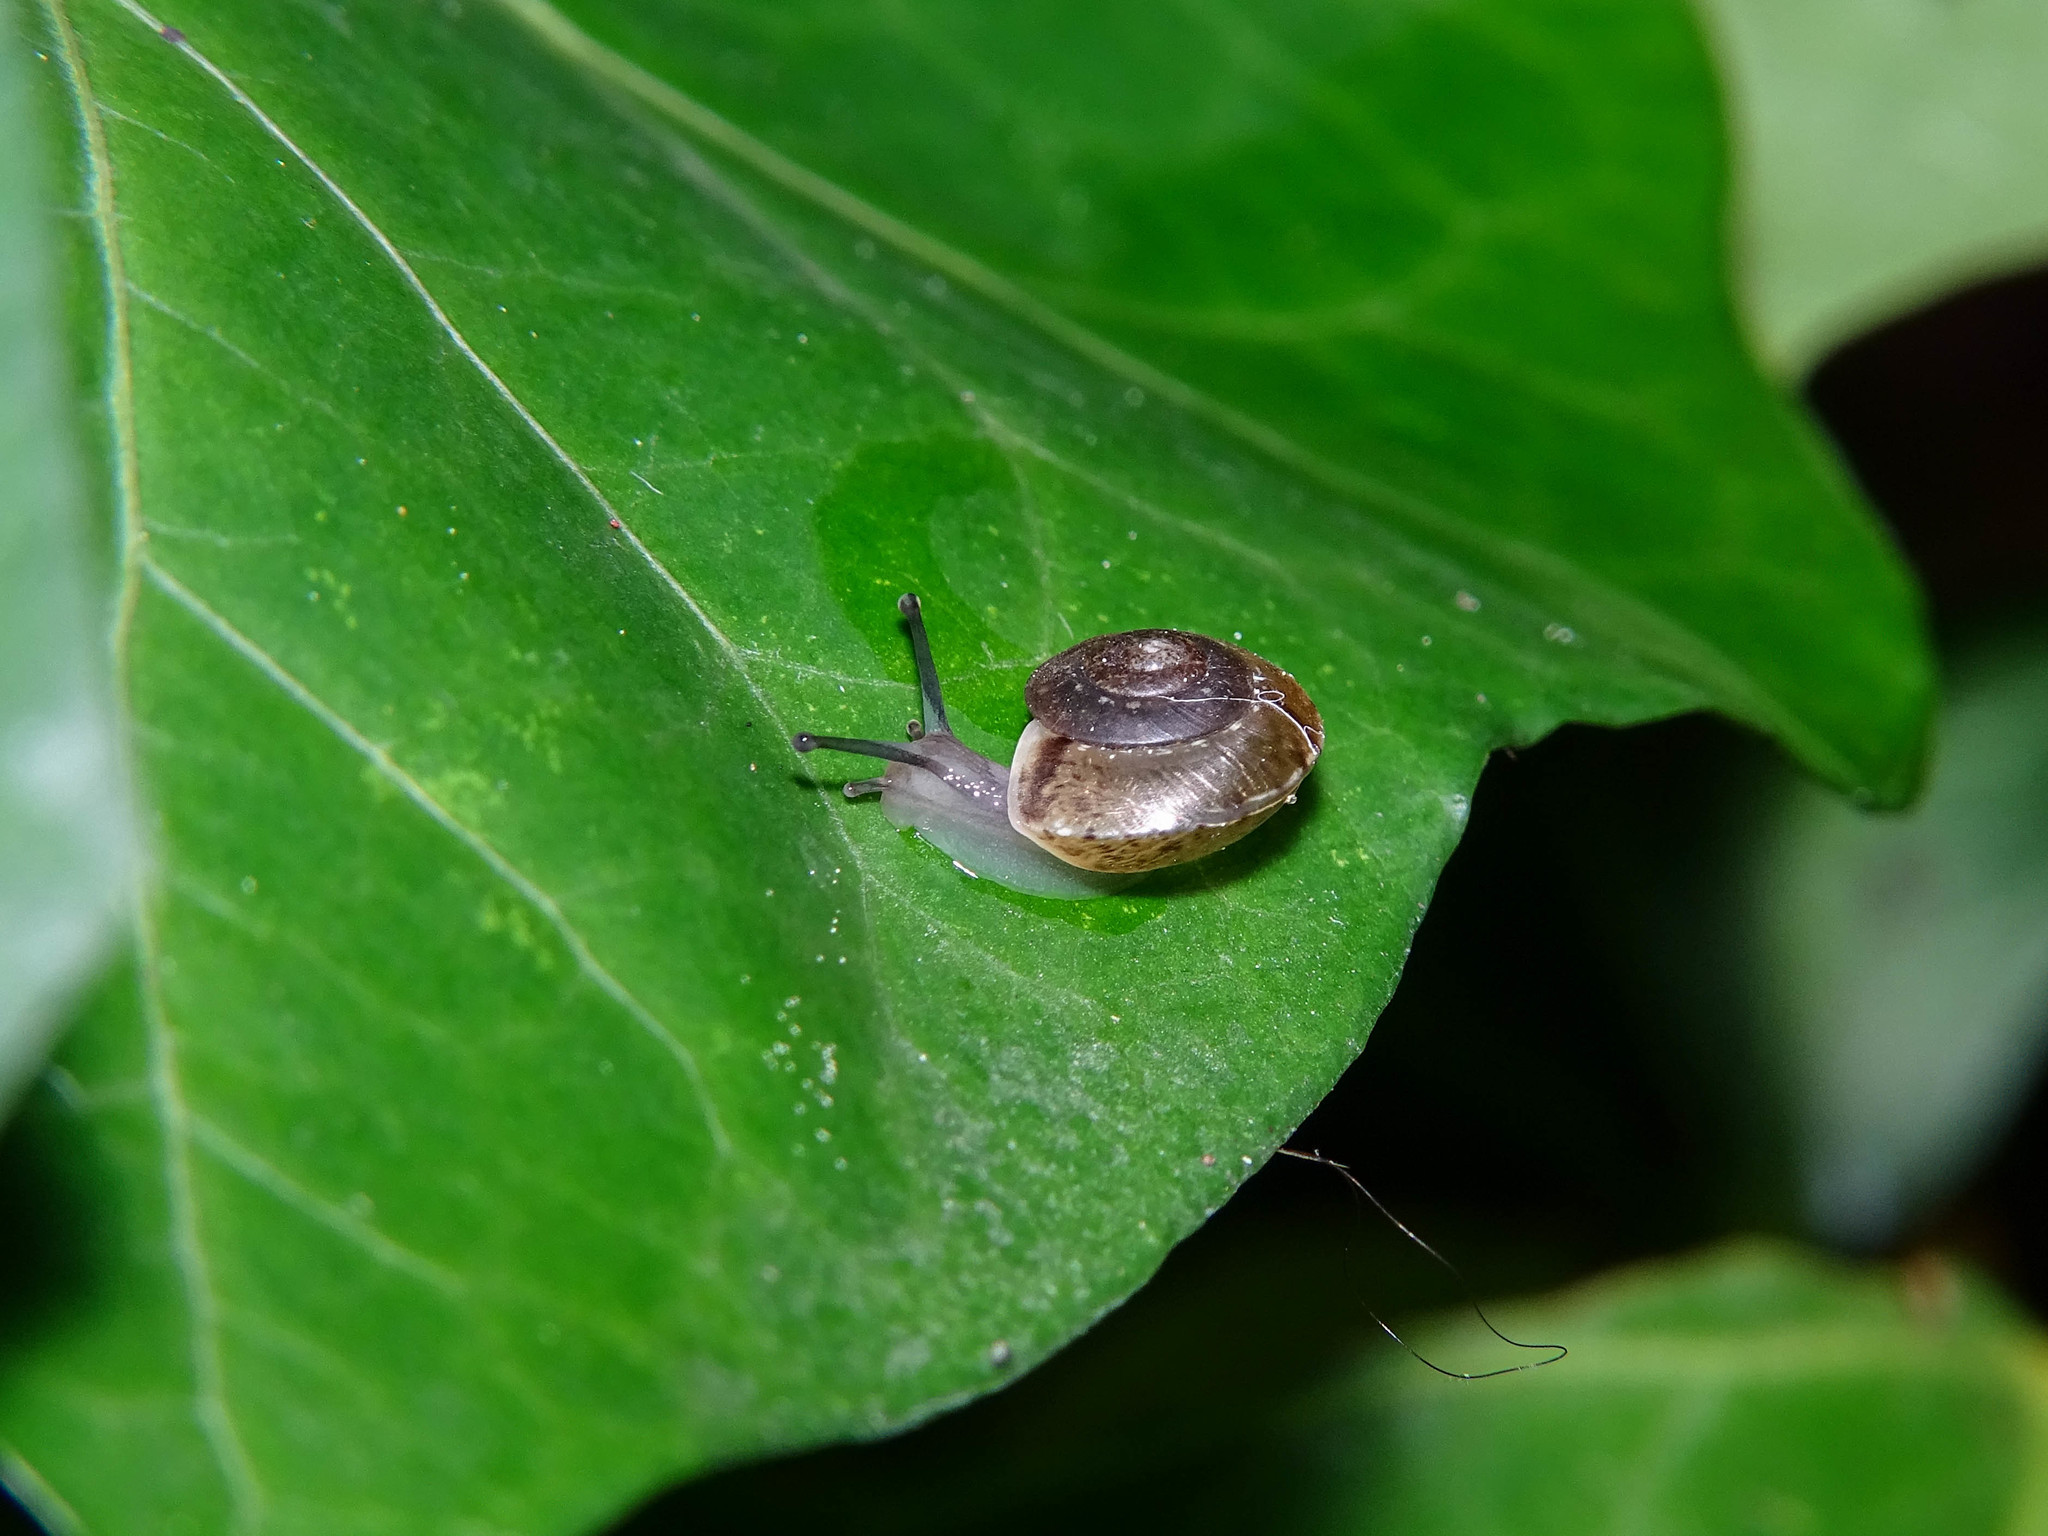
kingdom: Animalia
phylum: Mollusca
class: Gastropoda
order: Stylommatophora
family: Hygromiidae
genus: Hygromia
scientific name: Hygromia cinctella
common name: Girdled snail
